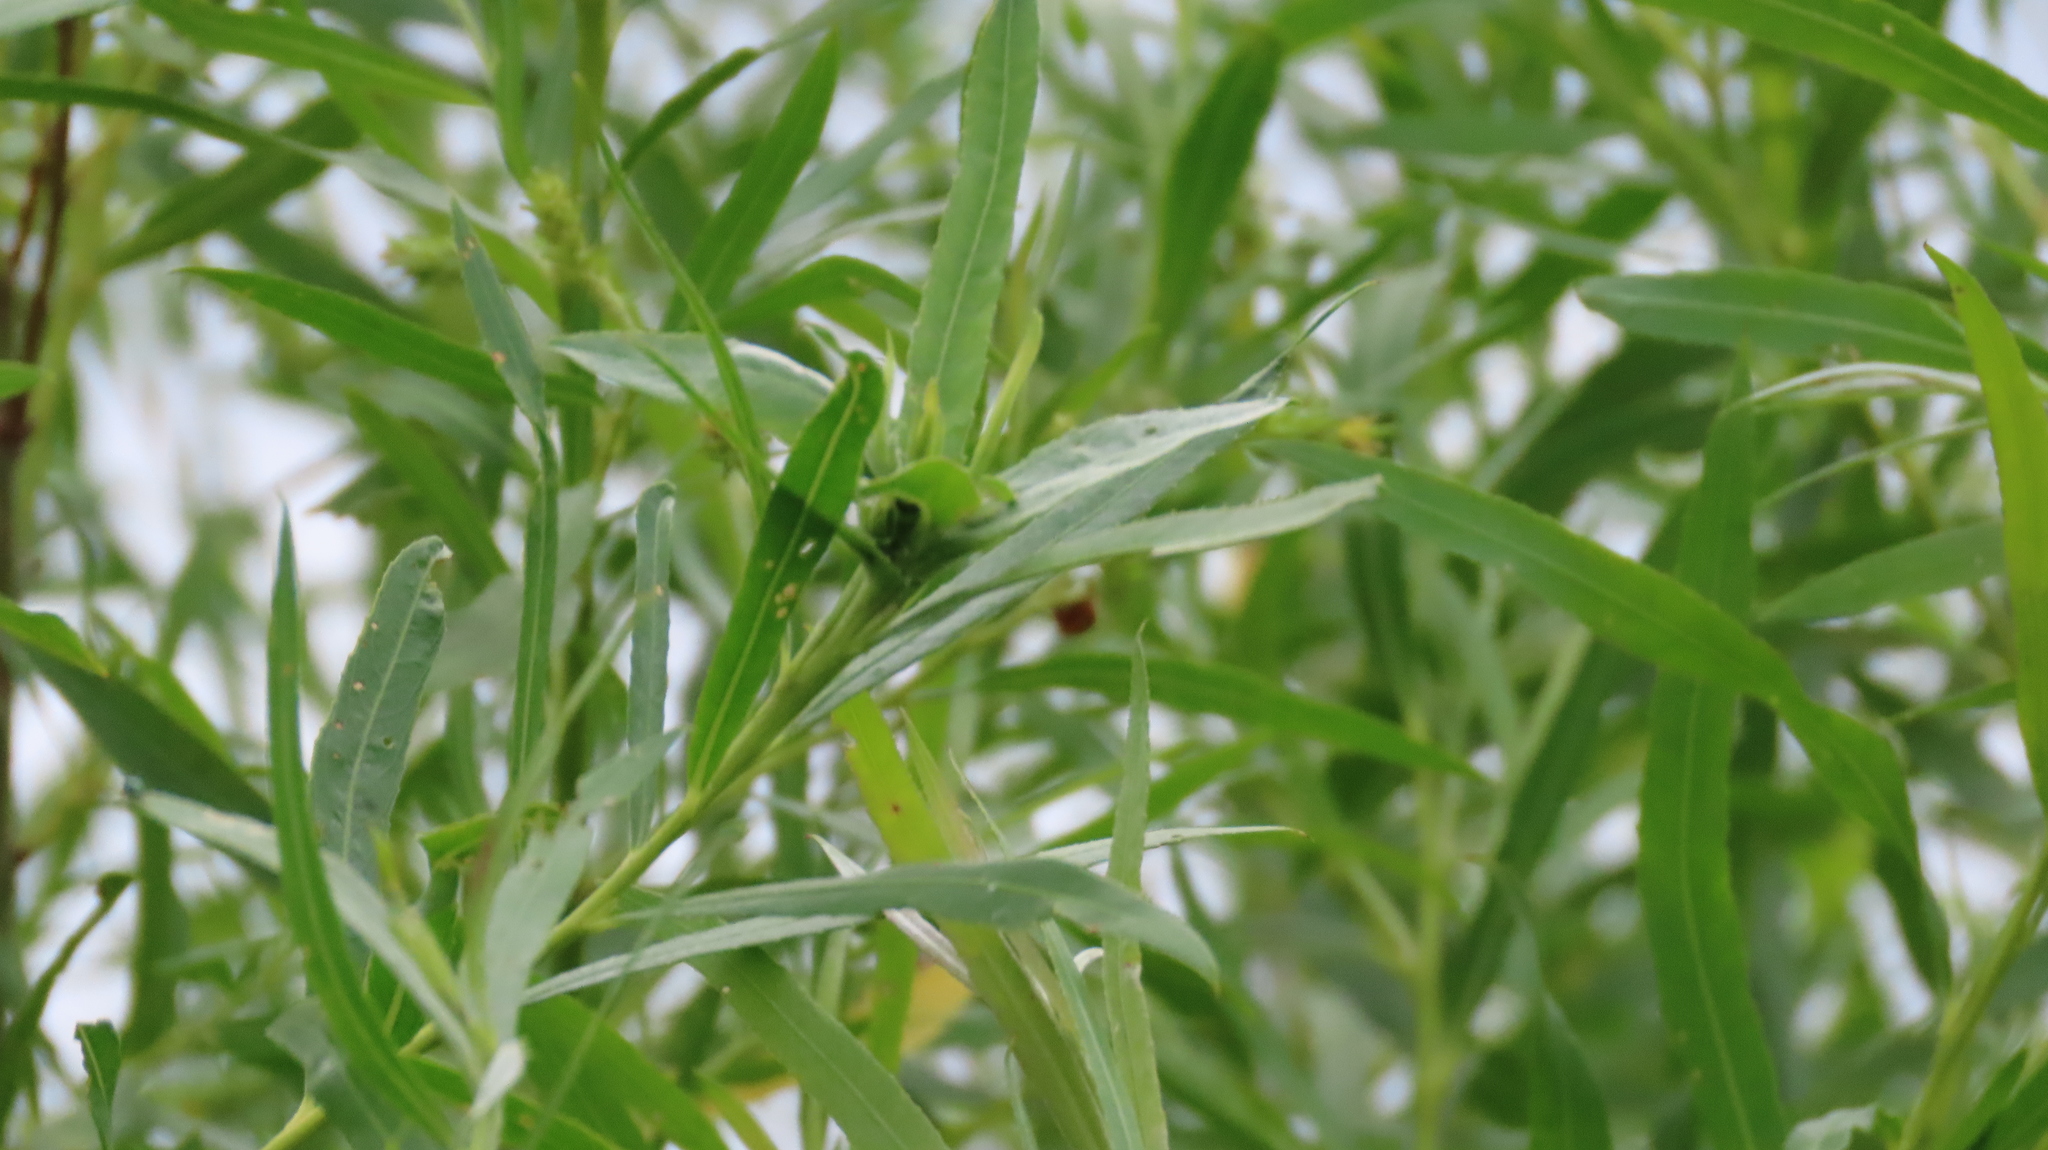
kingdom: Plantae
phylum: Tracheophyta
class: Magnoliopsida
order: Malpighiales
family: Salicaceae
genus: Salix
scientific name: Salix interior
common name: Sandbar willow
